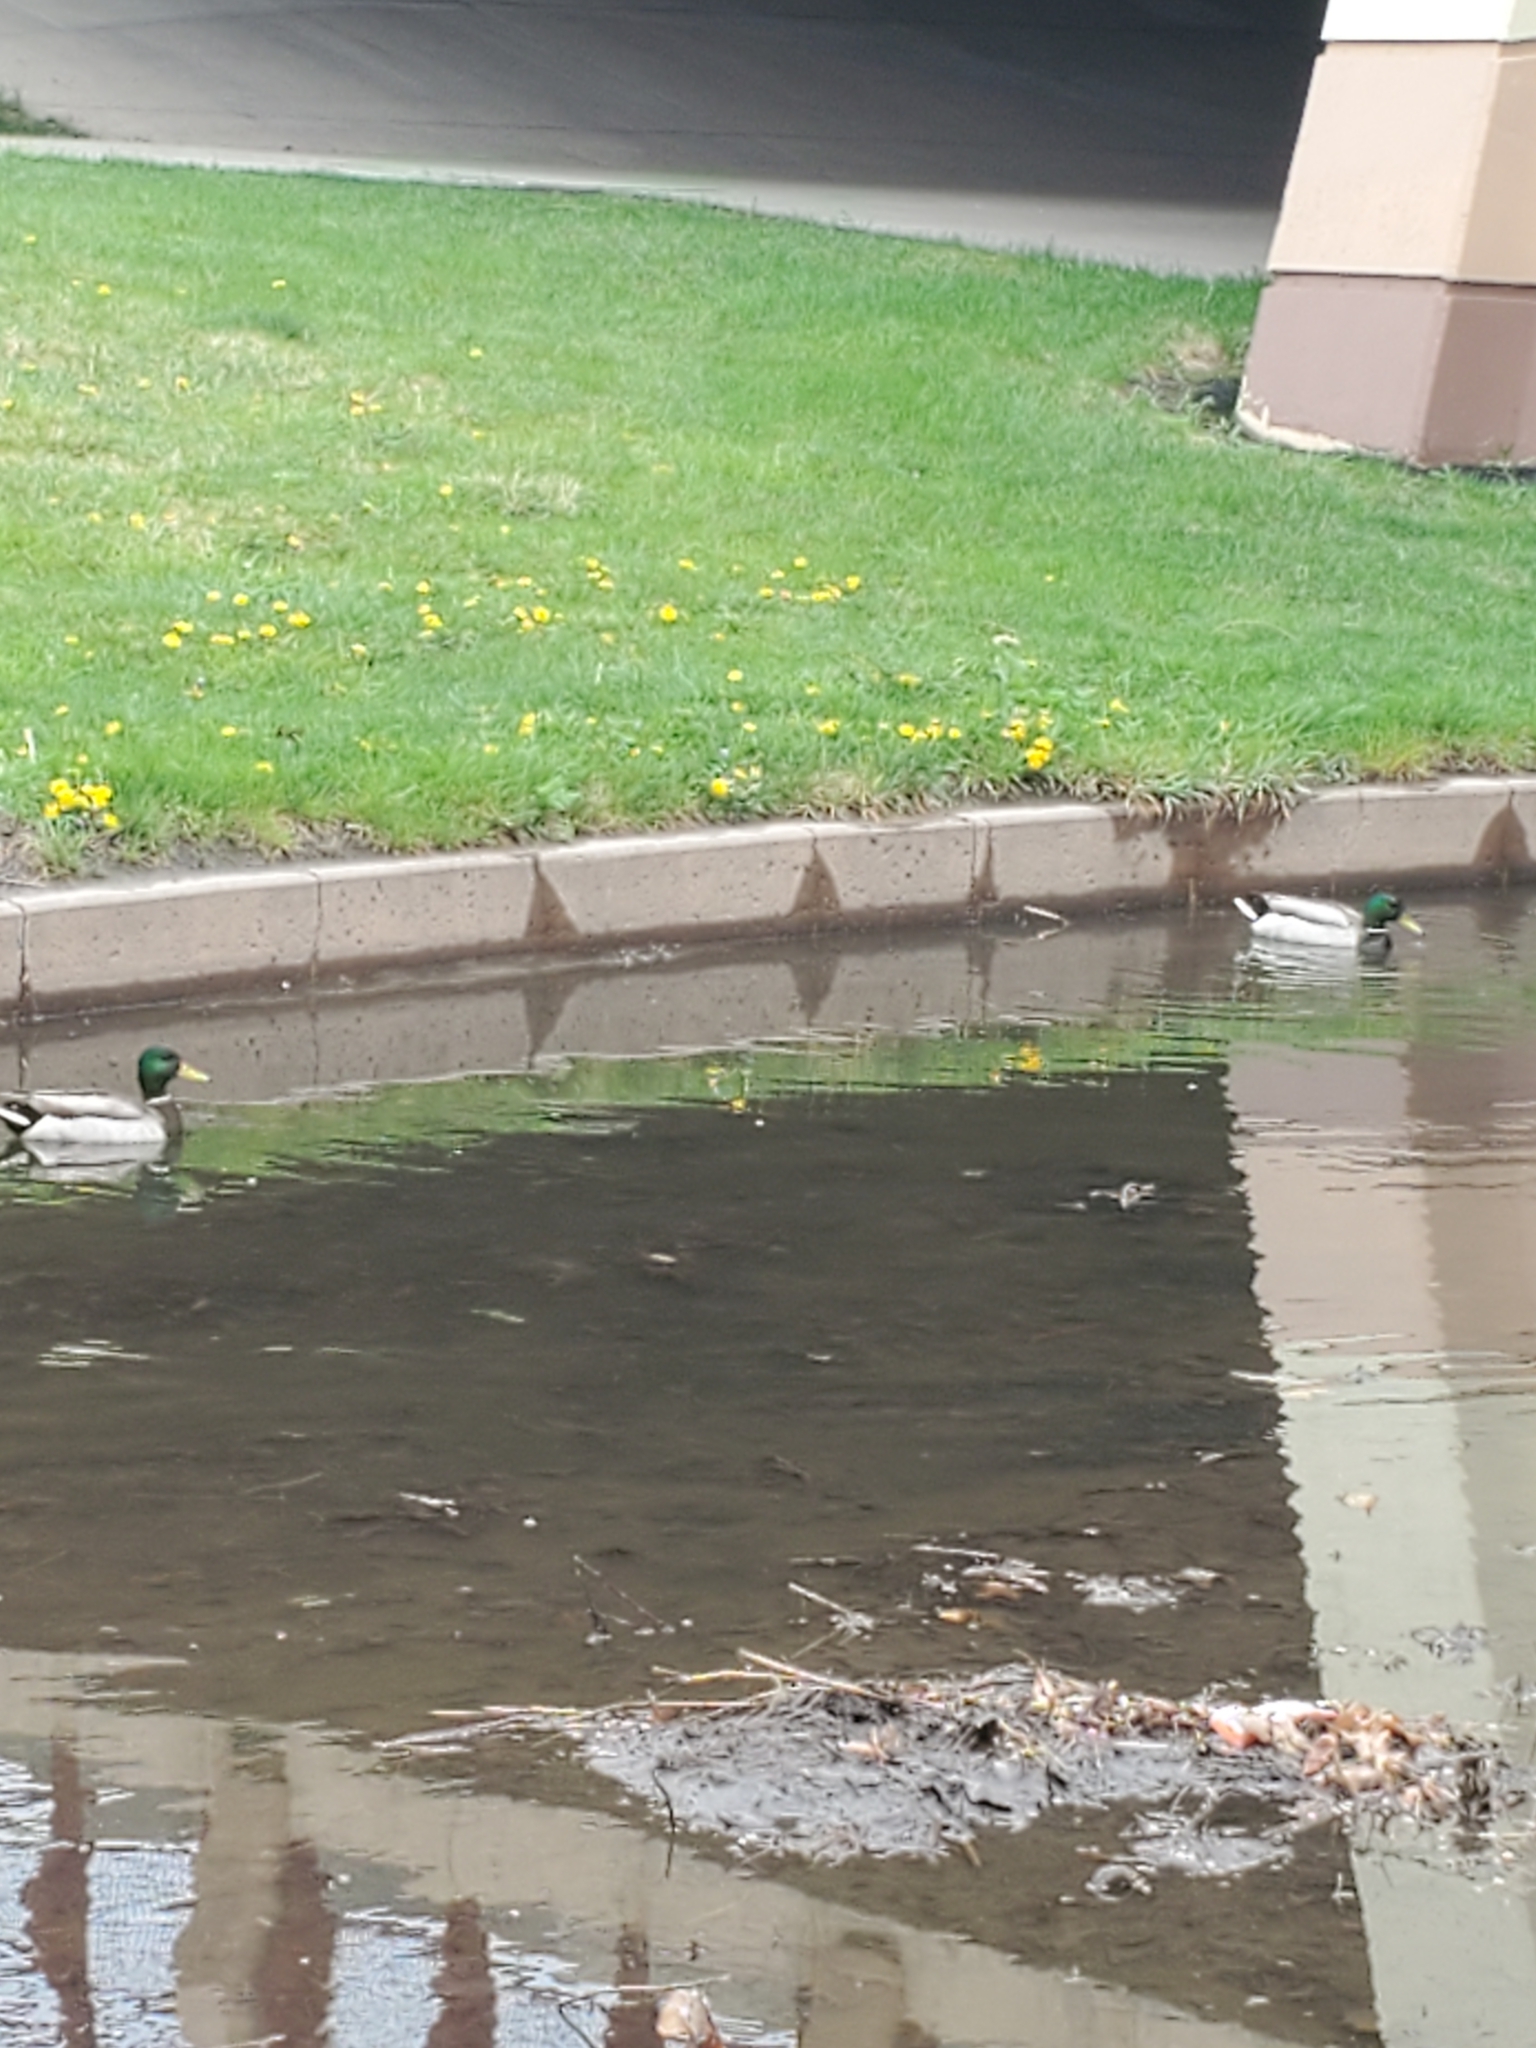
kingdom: Animalia
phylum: Chordata
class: Aves
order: Anseriformes
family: Anatidae
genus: Anas
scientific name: Anas platyrhynchos
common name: Mallard
